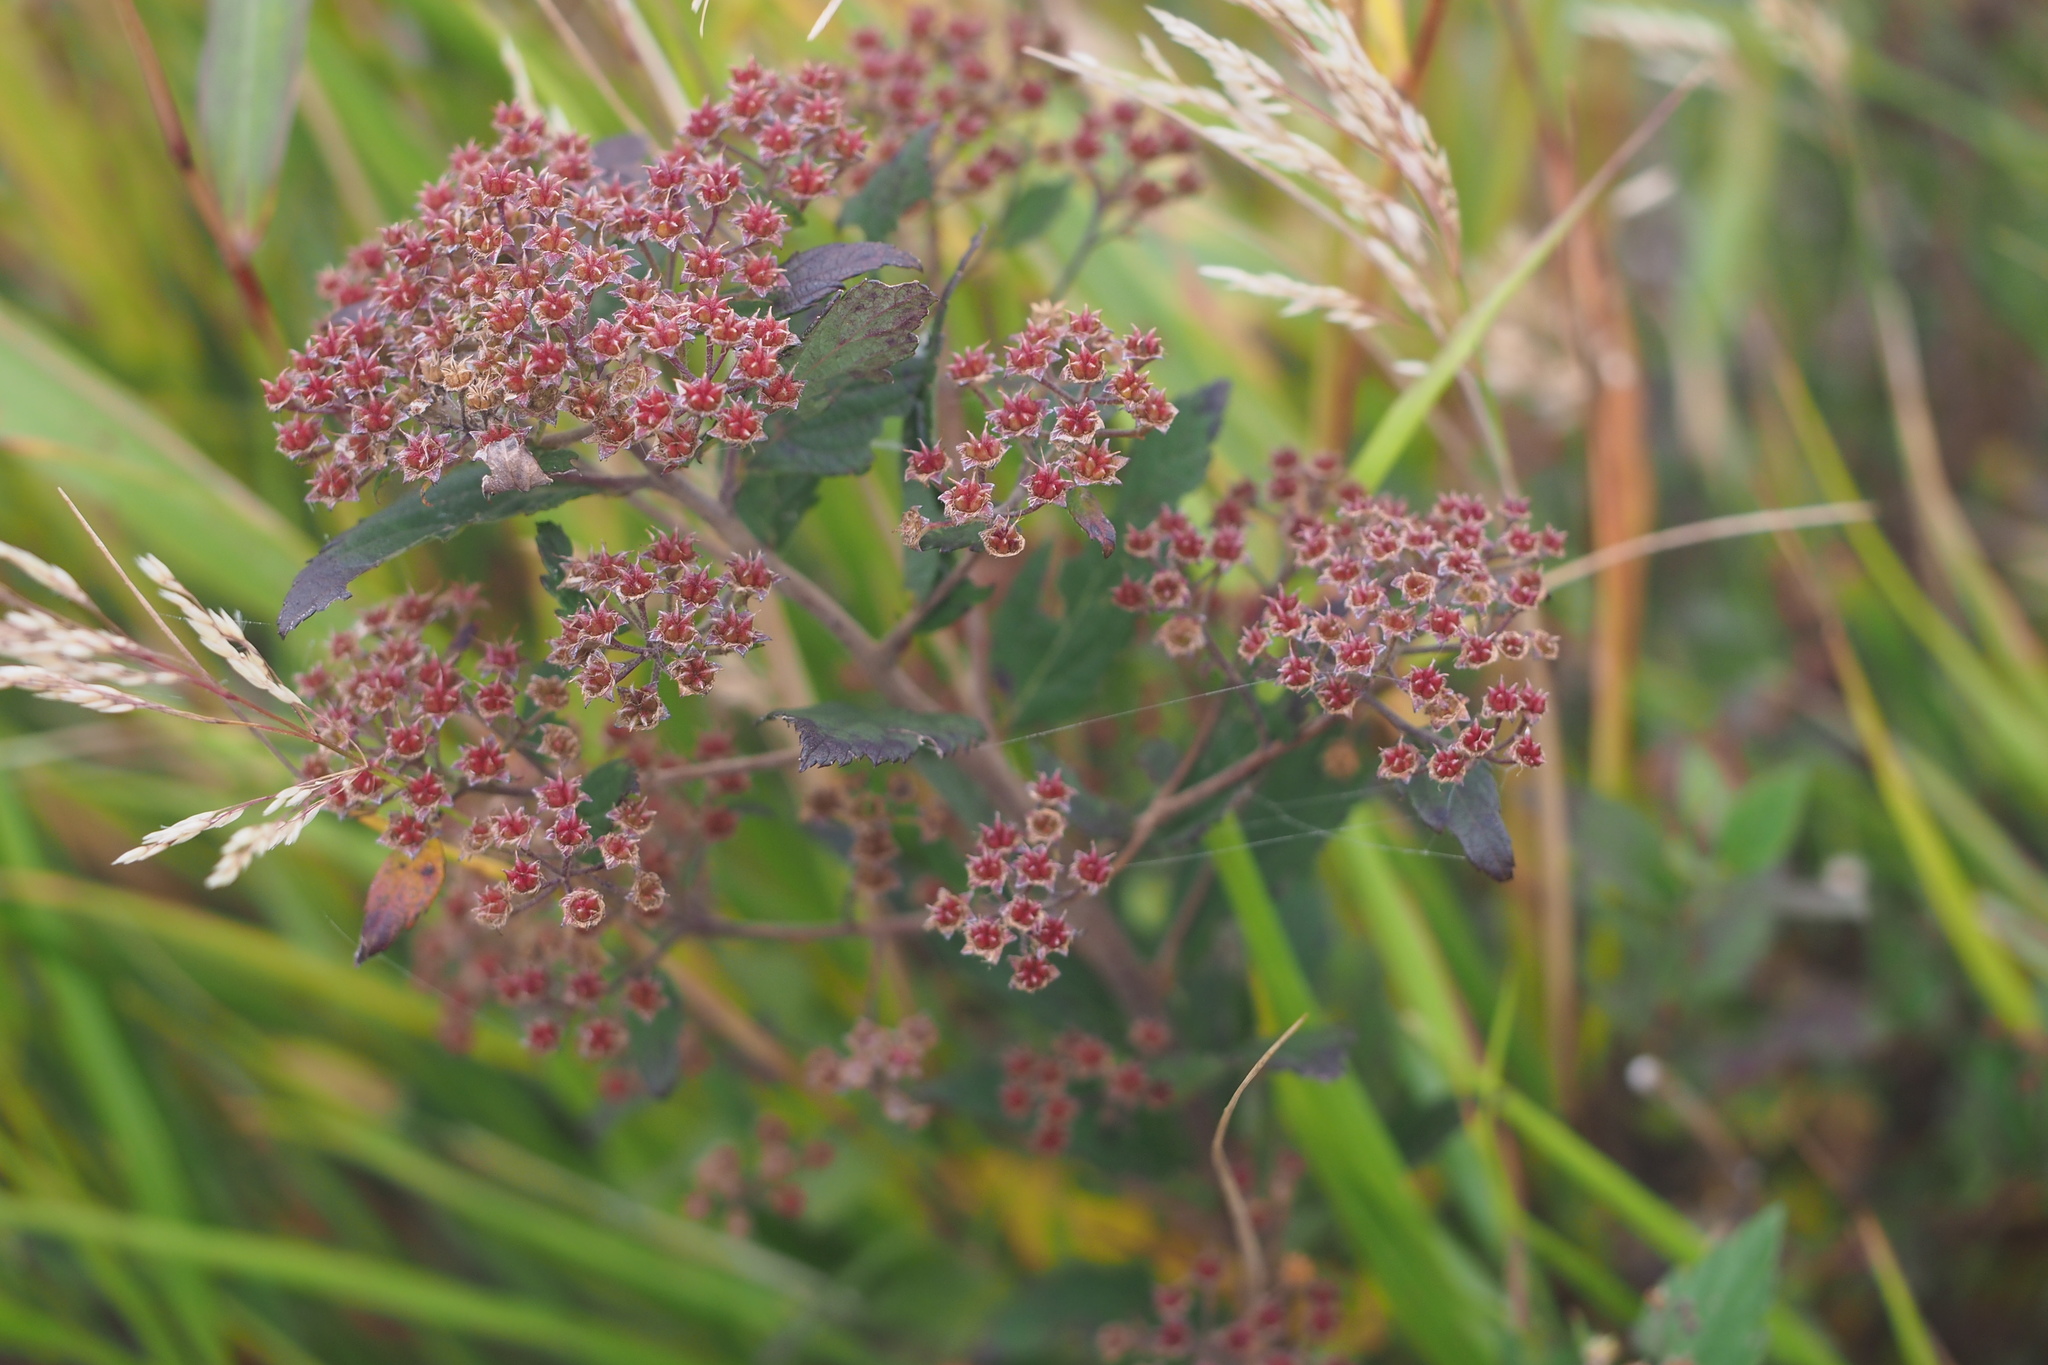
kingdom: Plantae
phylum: Tracheophyta
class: Magnoliopsida
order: Rosales
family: Rosaceae
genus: Spiraea
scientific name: Spiraea japonica
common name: Japanese spiraea
